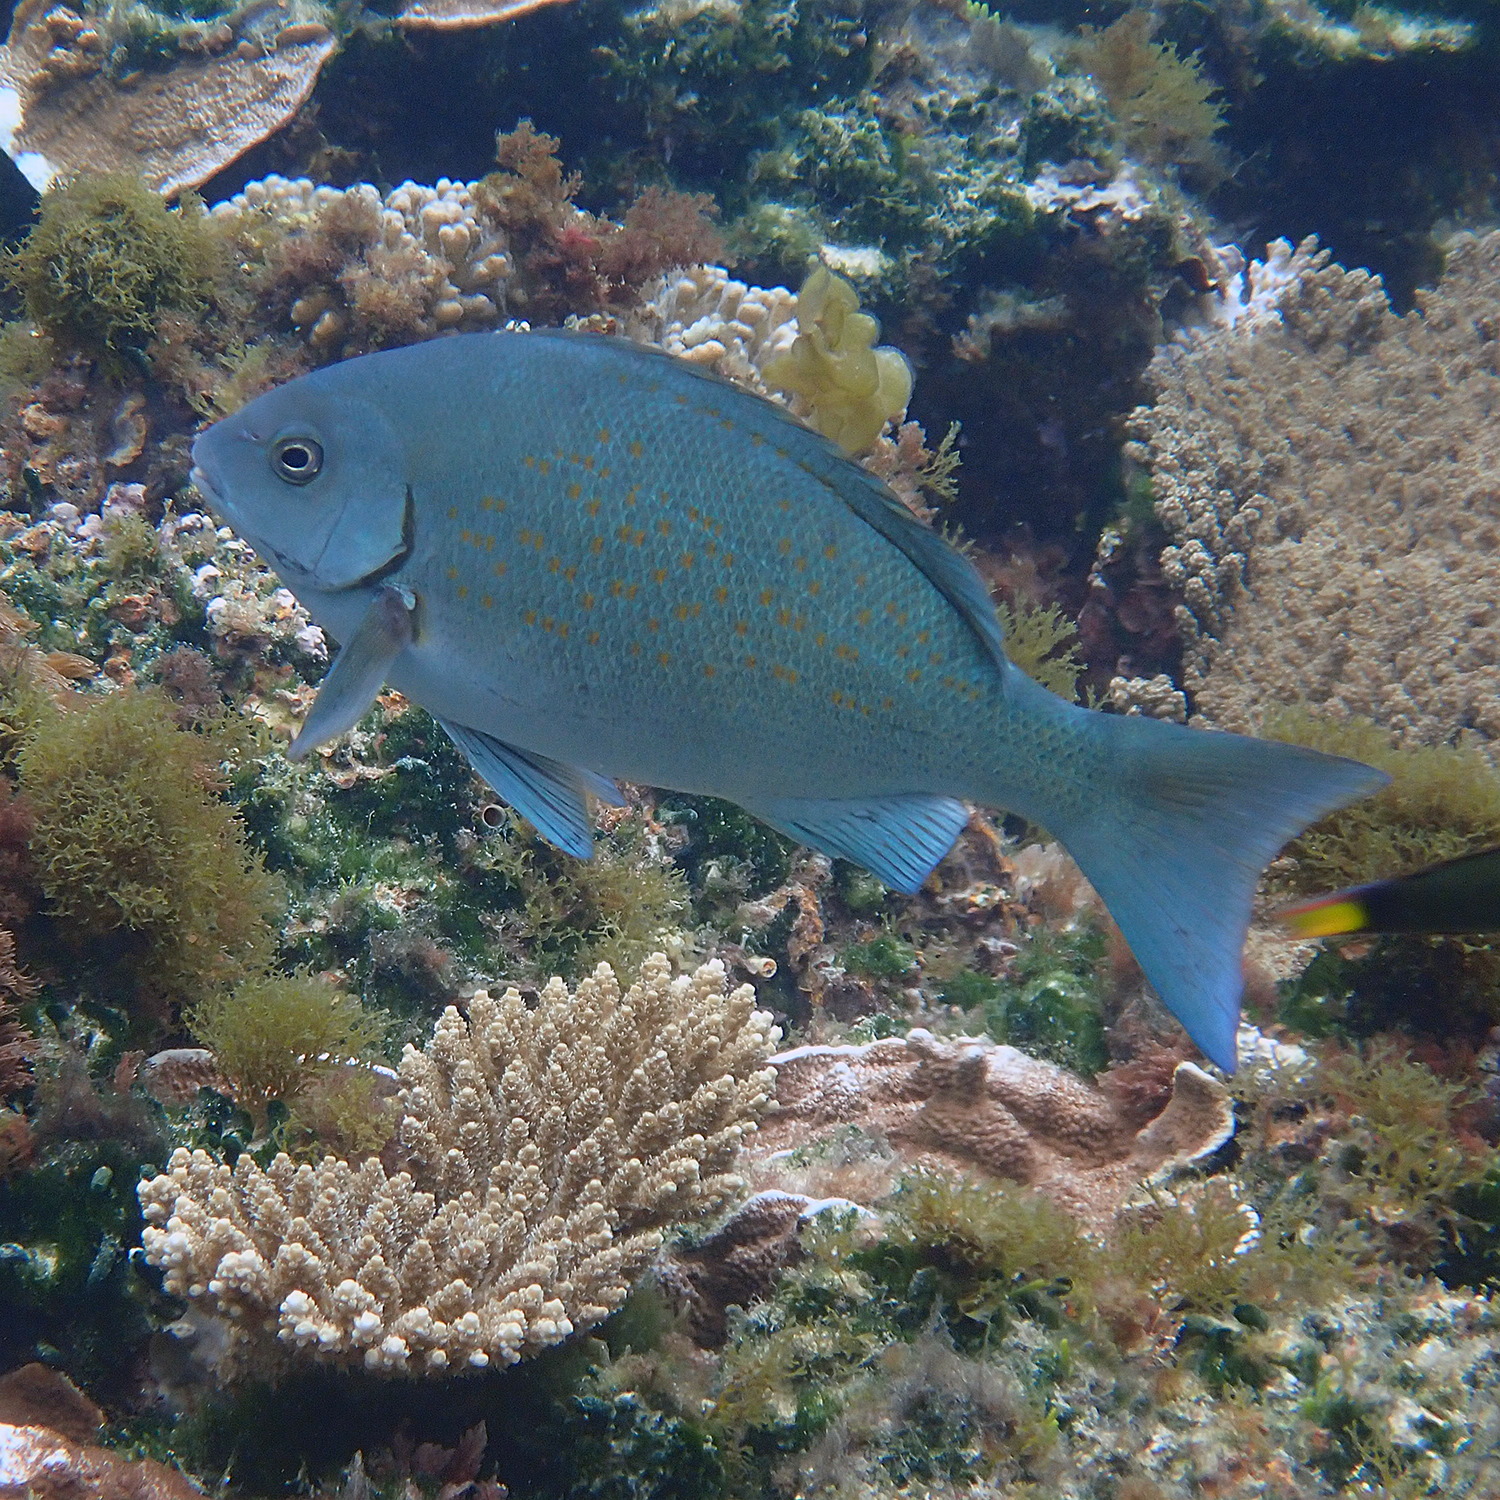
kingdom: Animalia
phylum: Chordata
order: Perciformes
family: Kyphosidae
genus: Girella
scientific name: Girella cyanea
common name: Bluefish
